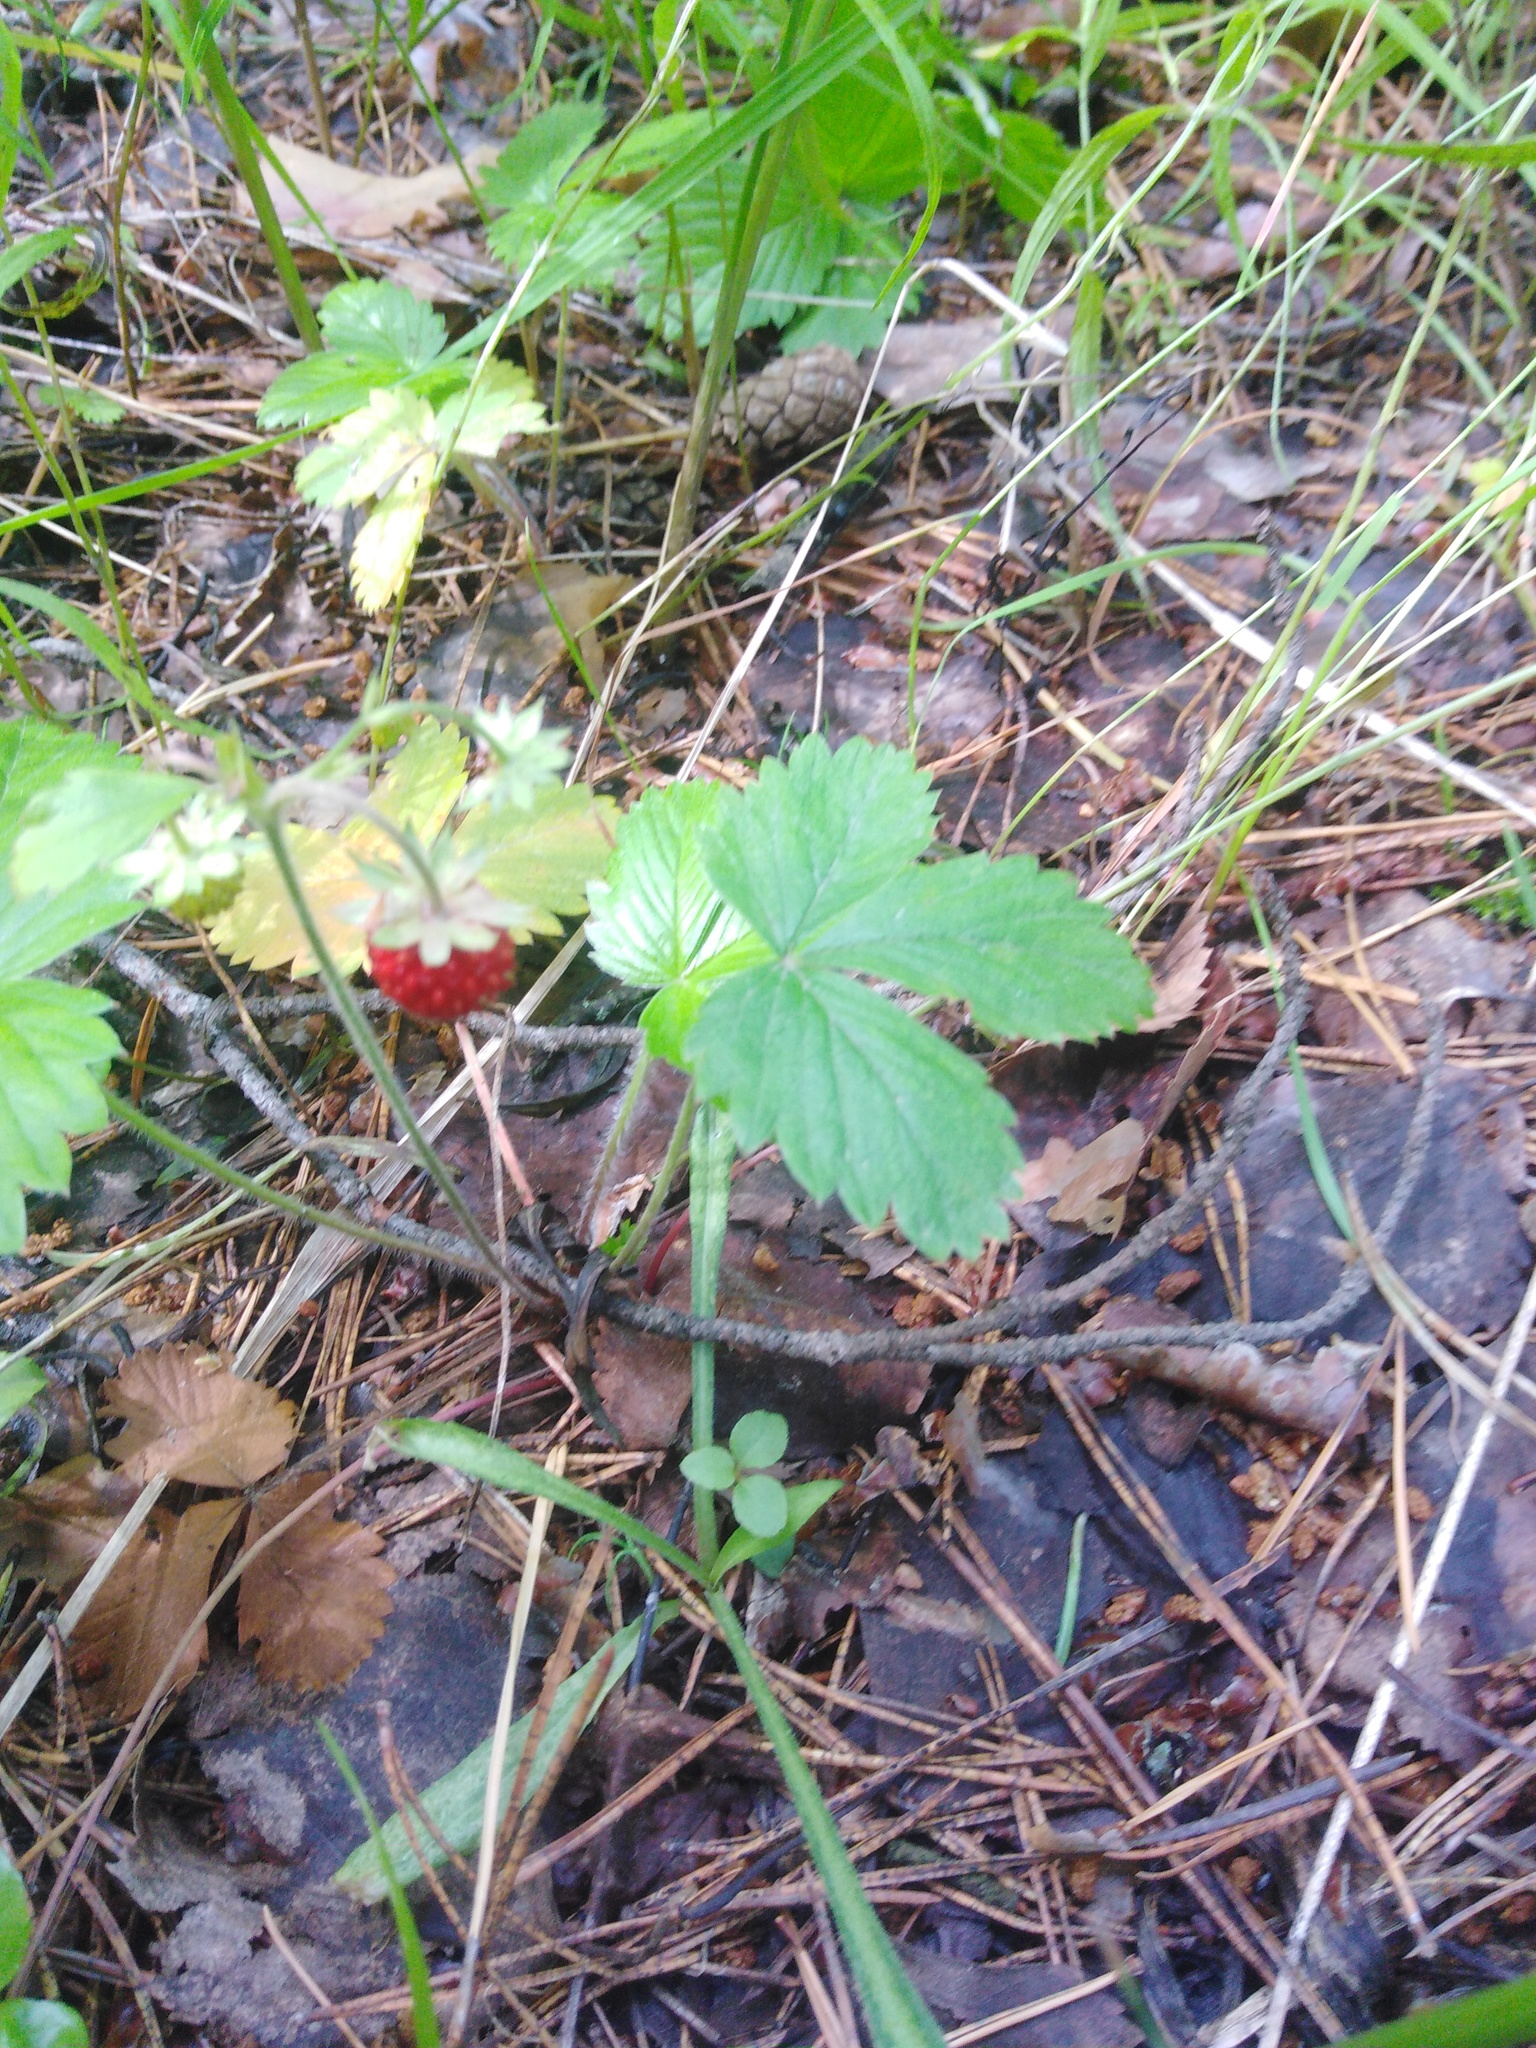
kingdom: Plantae
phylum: Tracheophyta
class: Magnoliopsida
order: Rosales
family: Rosaceae
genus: Fragaria
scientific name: Fragaria vesca
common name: Wild strawberry
